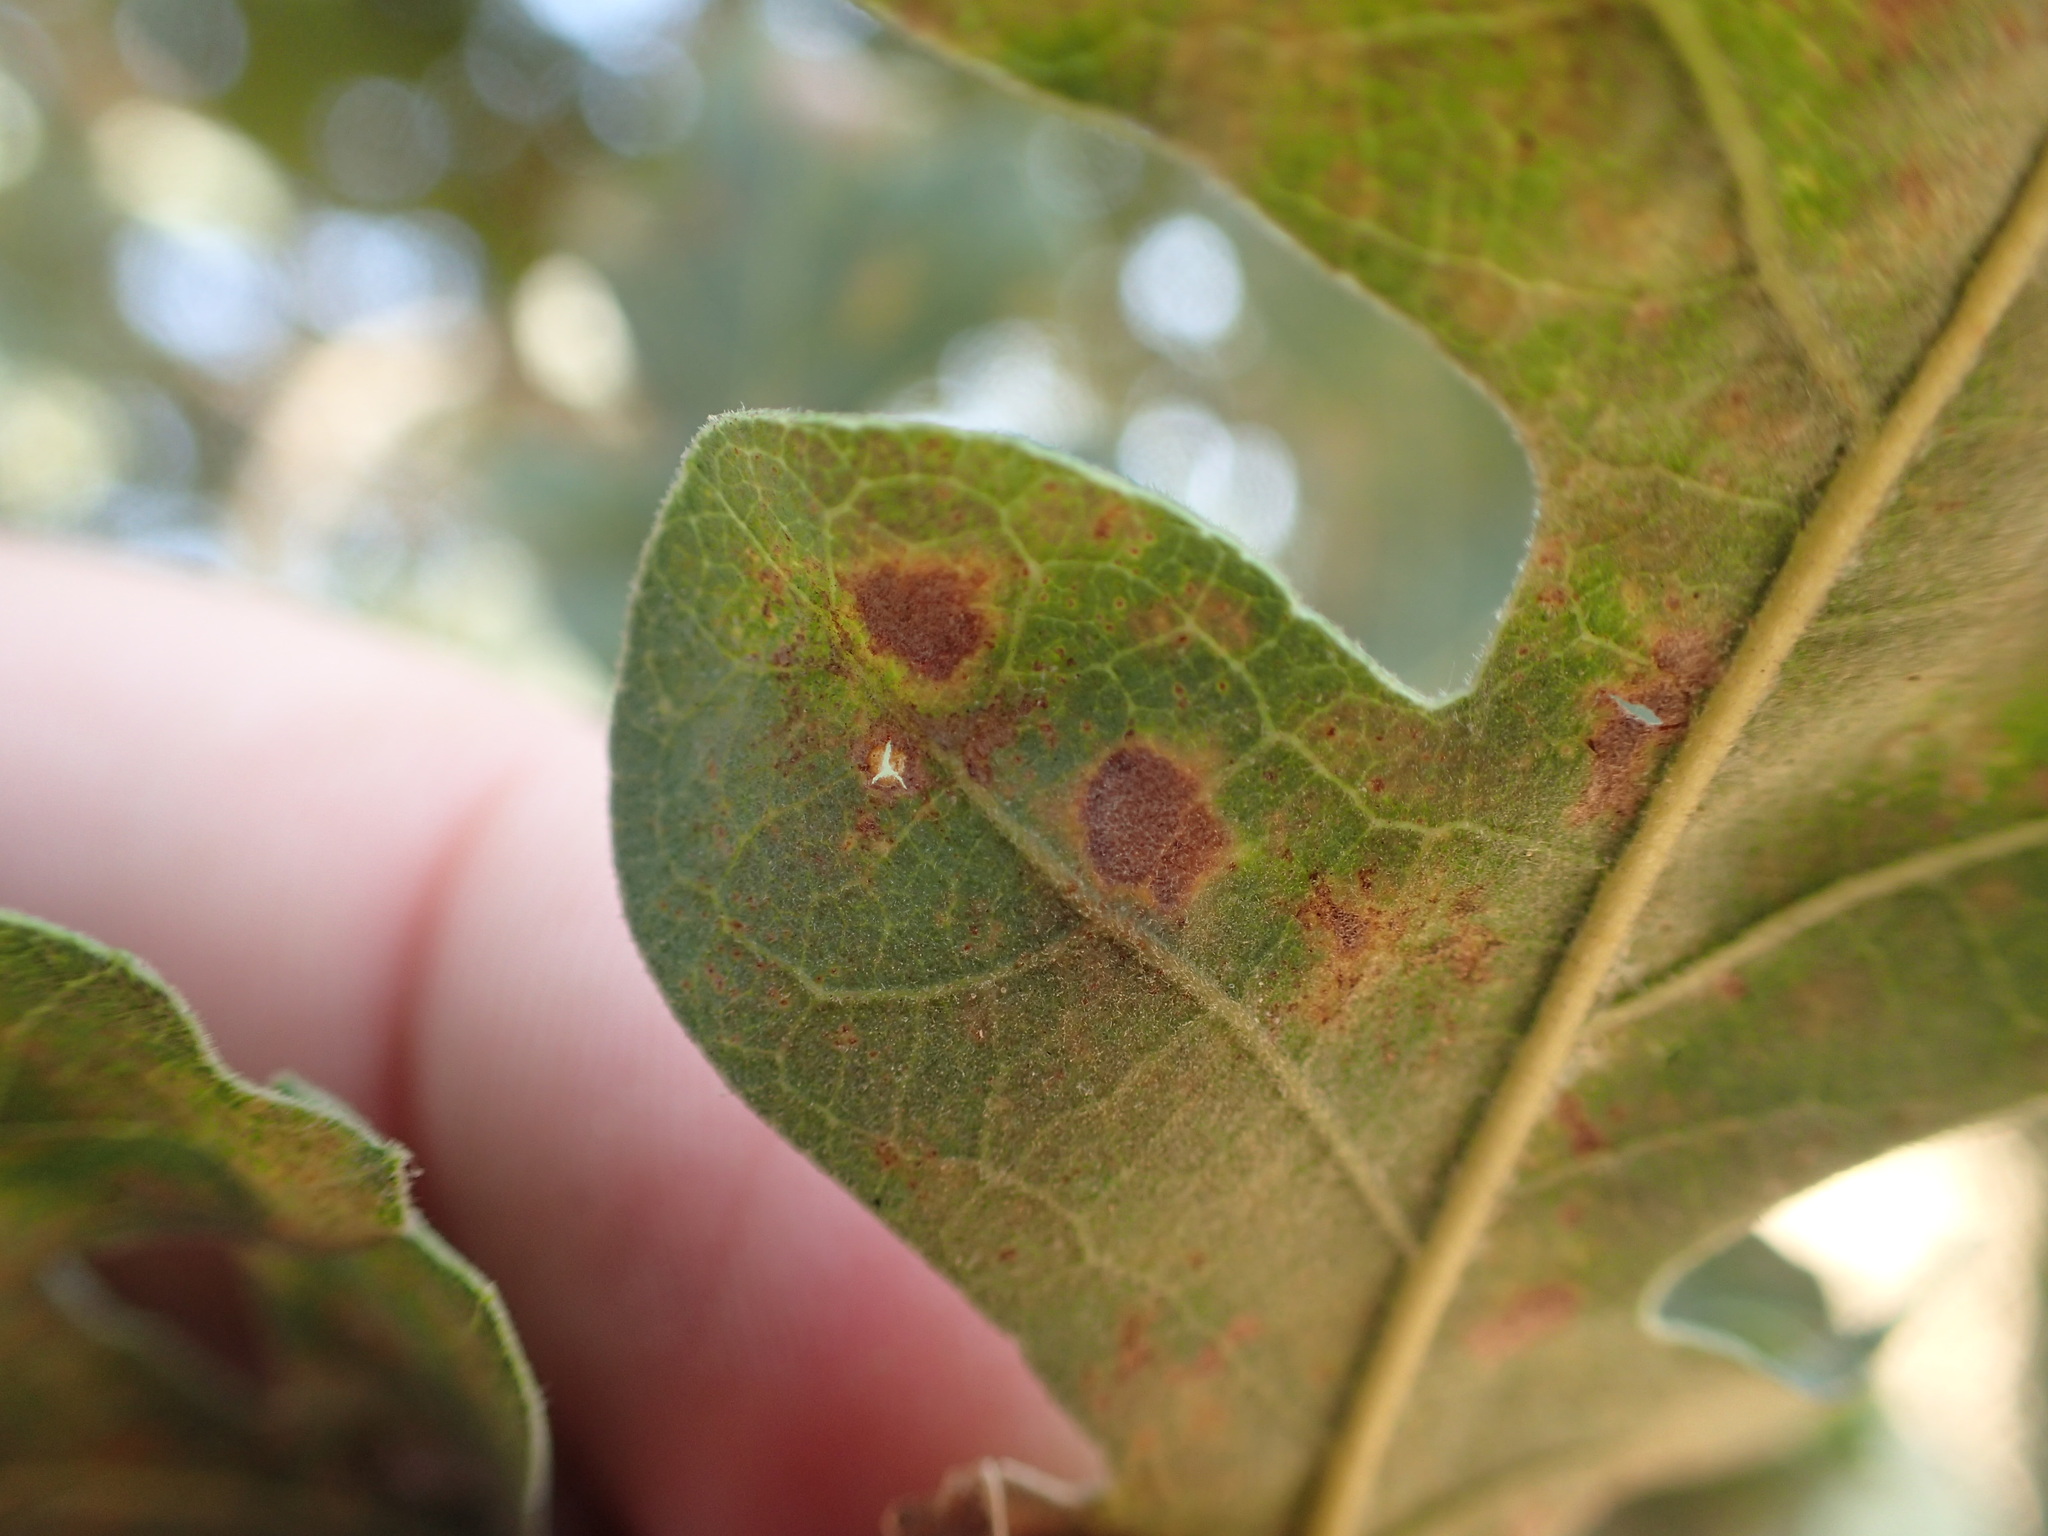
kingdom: Animalia
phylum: Arthropoda
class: Insecta
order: Hymenoptera
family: Cynipidae
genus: Andricus
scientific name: Andricus
